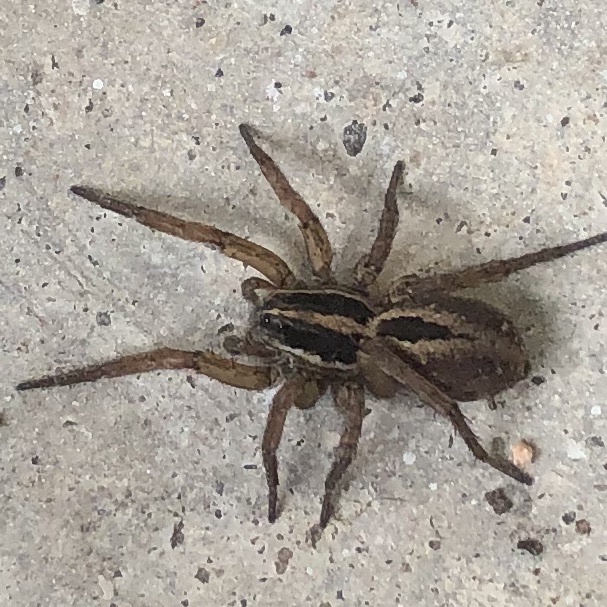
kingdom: Animalia
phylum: Arthropoda
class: Arachnida
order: Araneae
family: Lycosidae
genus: Tigrosa
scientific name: Tigrosa annexa
